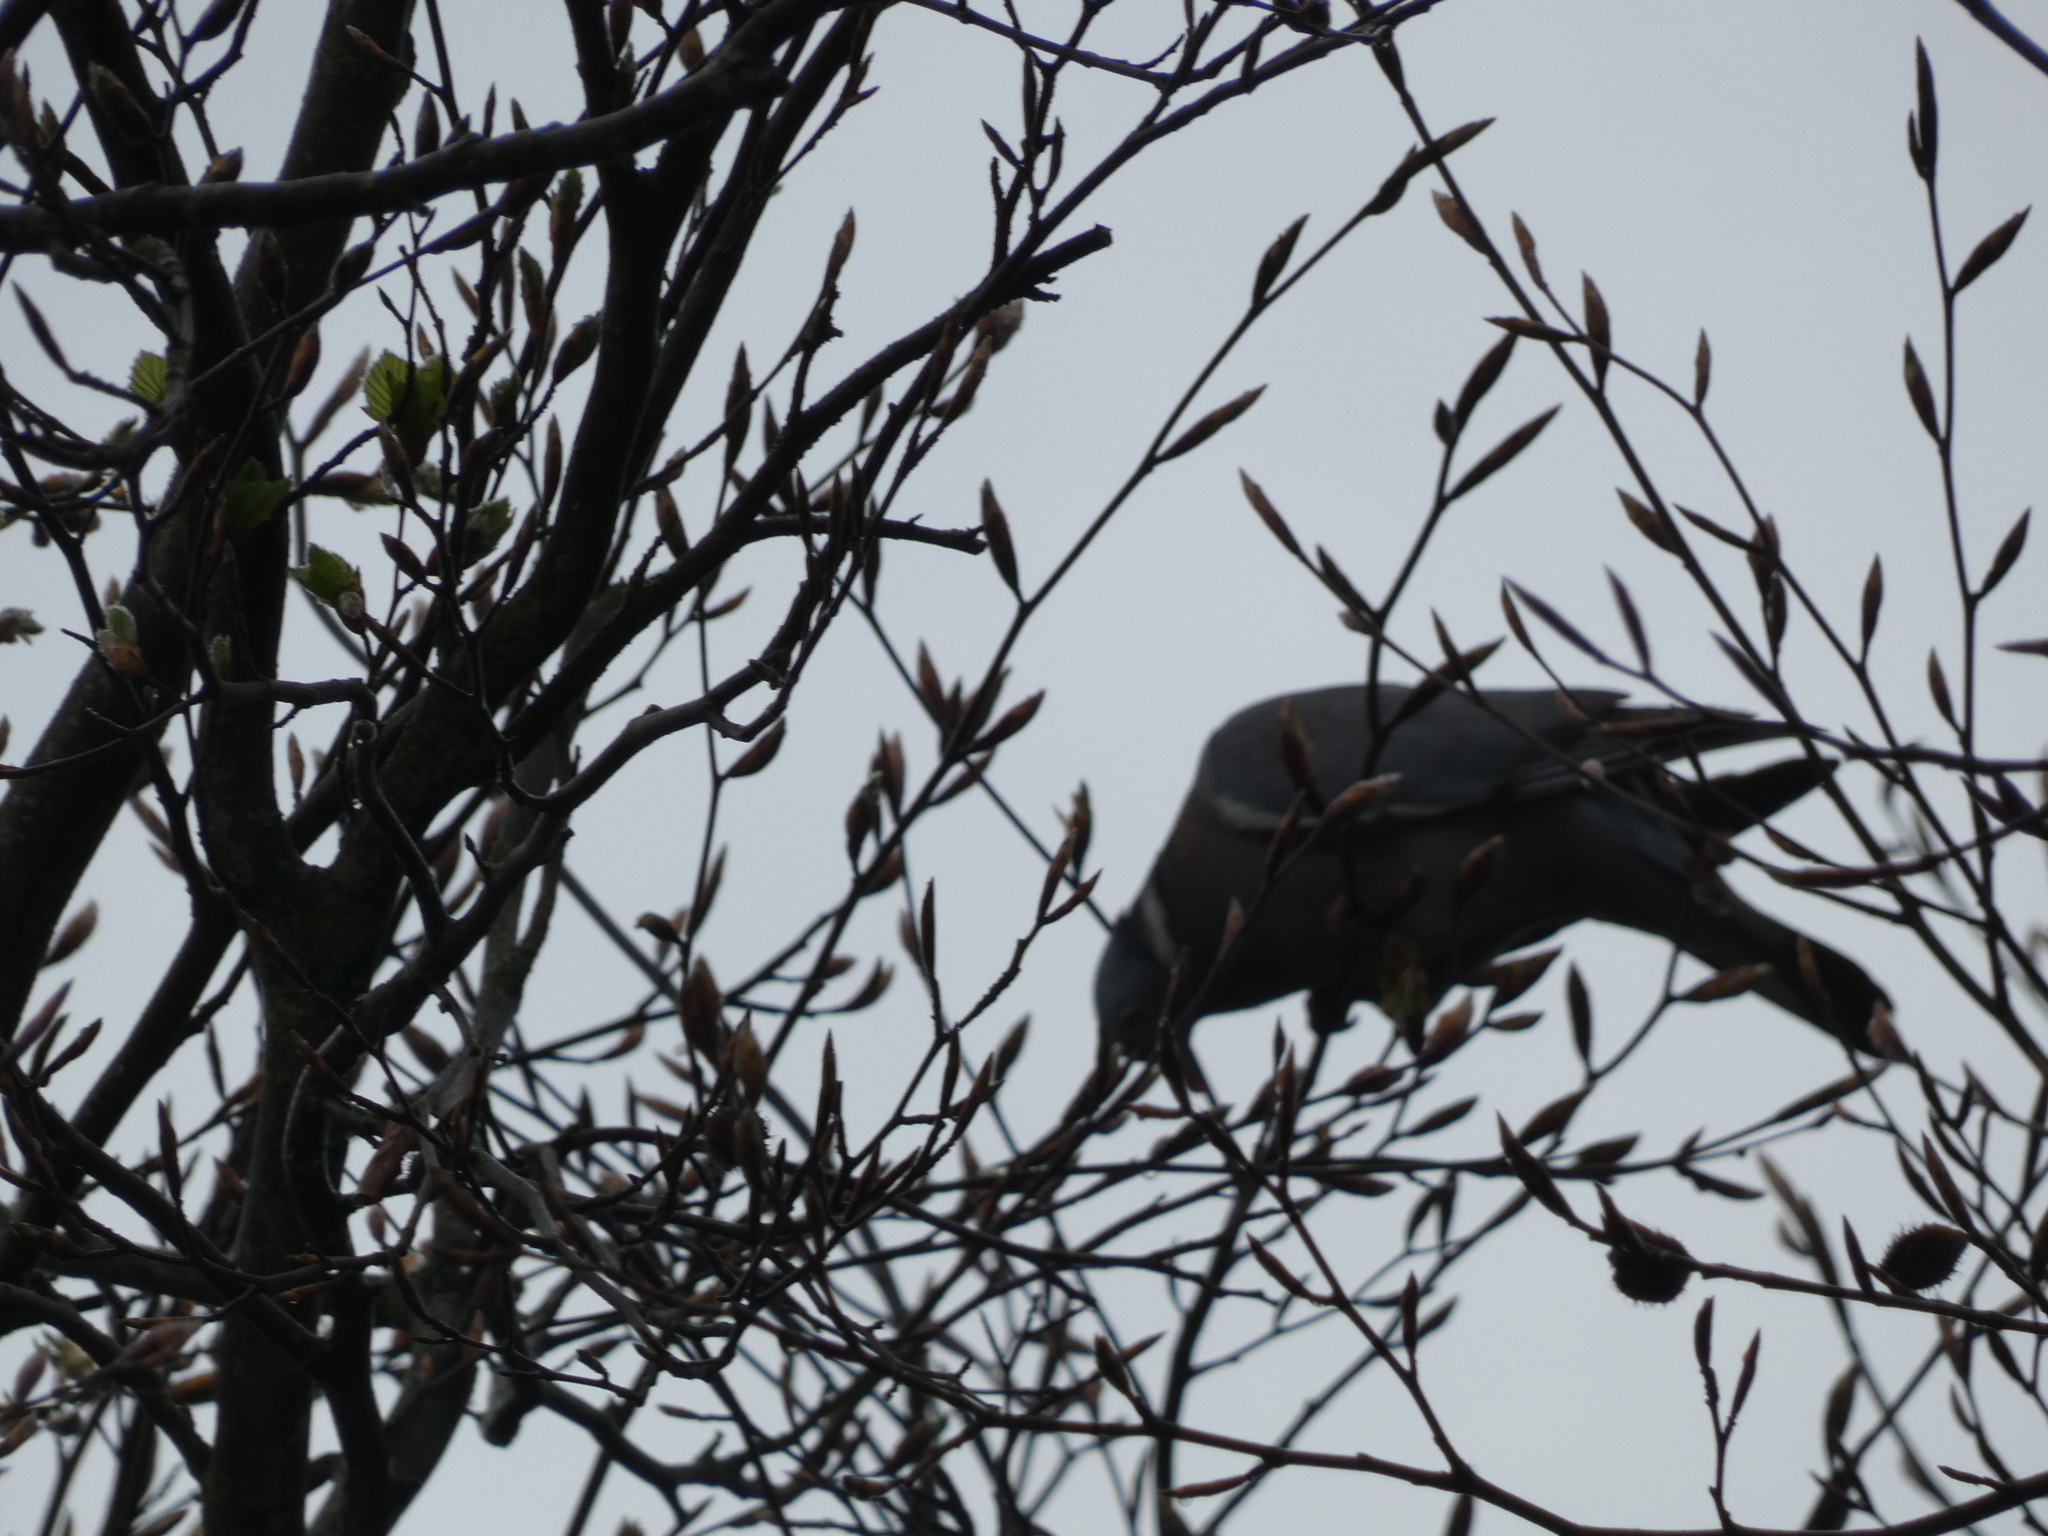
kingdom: Animalia
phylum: Chordata
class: Aves
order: Columbiformes
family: Columbidae
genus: Columba
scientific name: Columba palumbus
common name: Common wood pigeon
